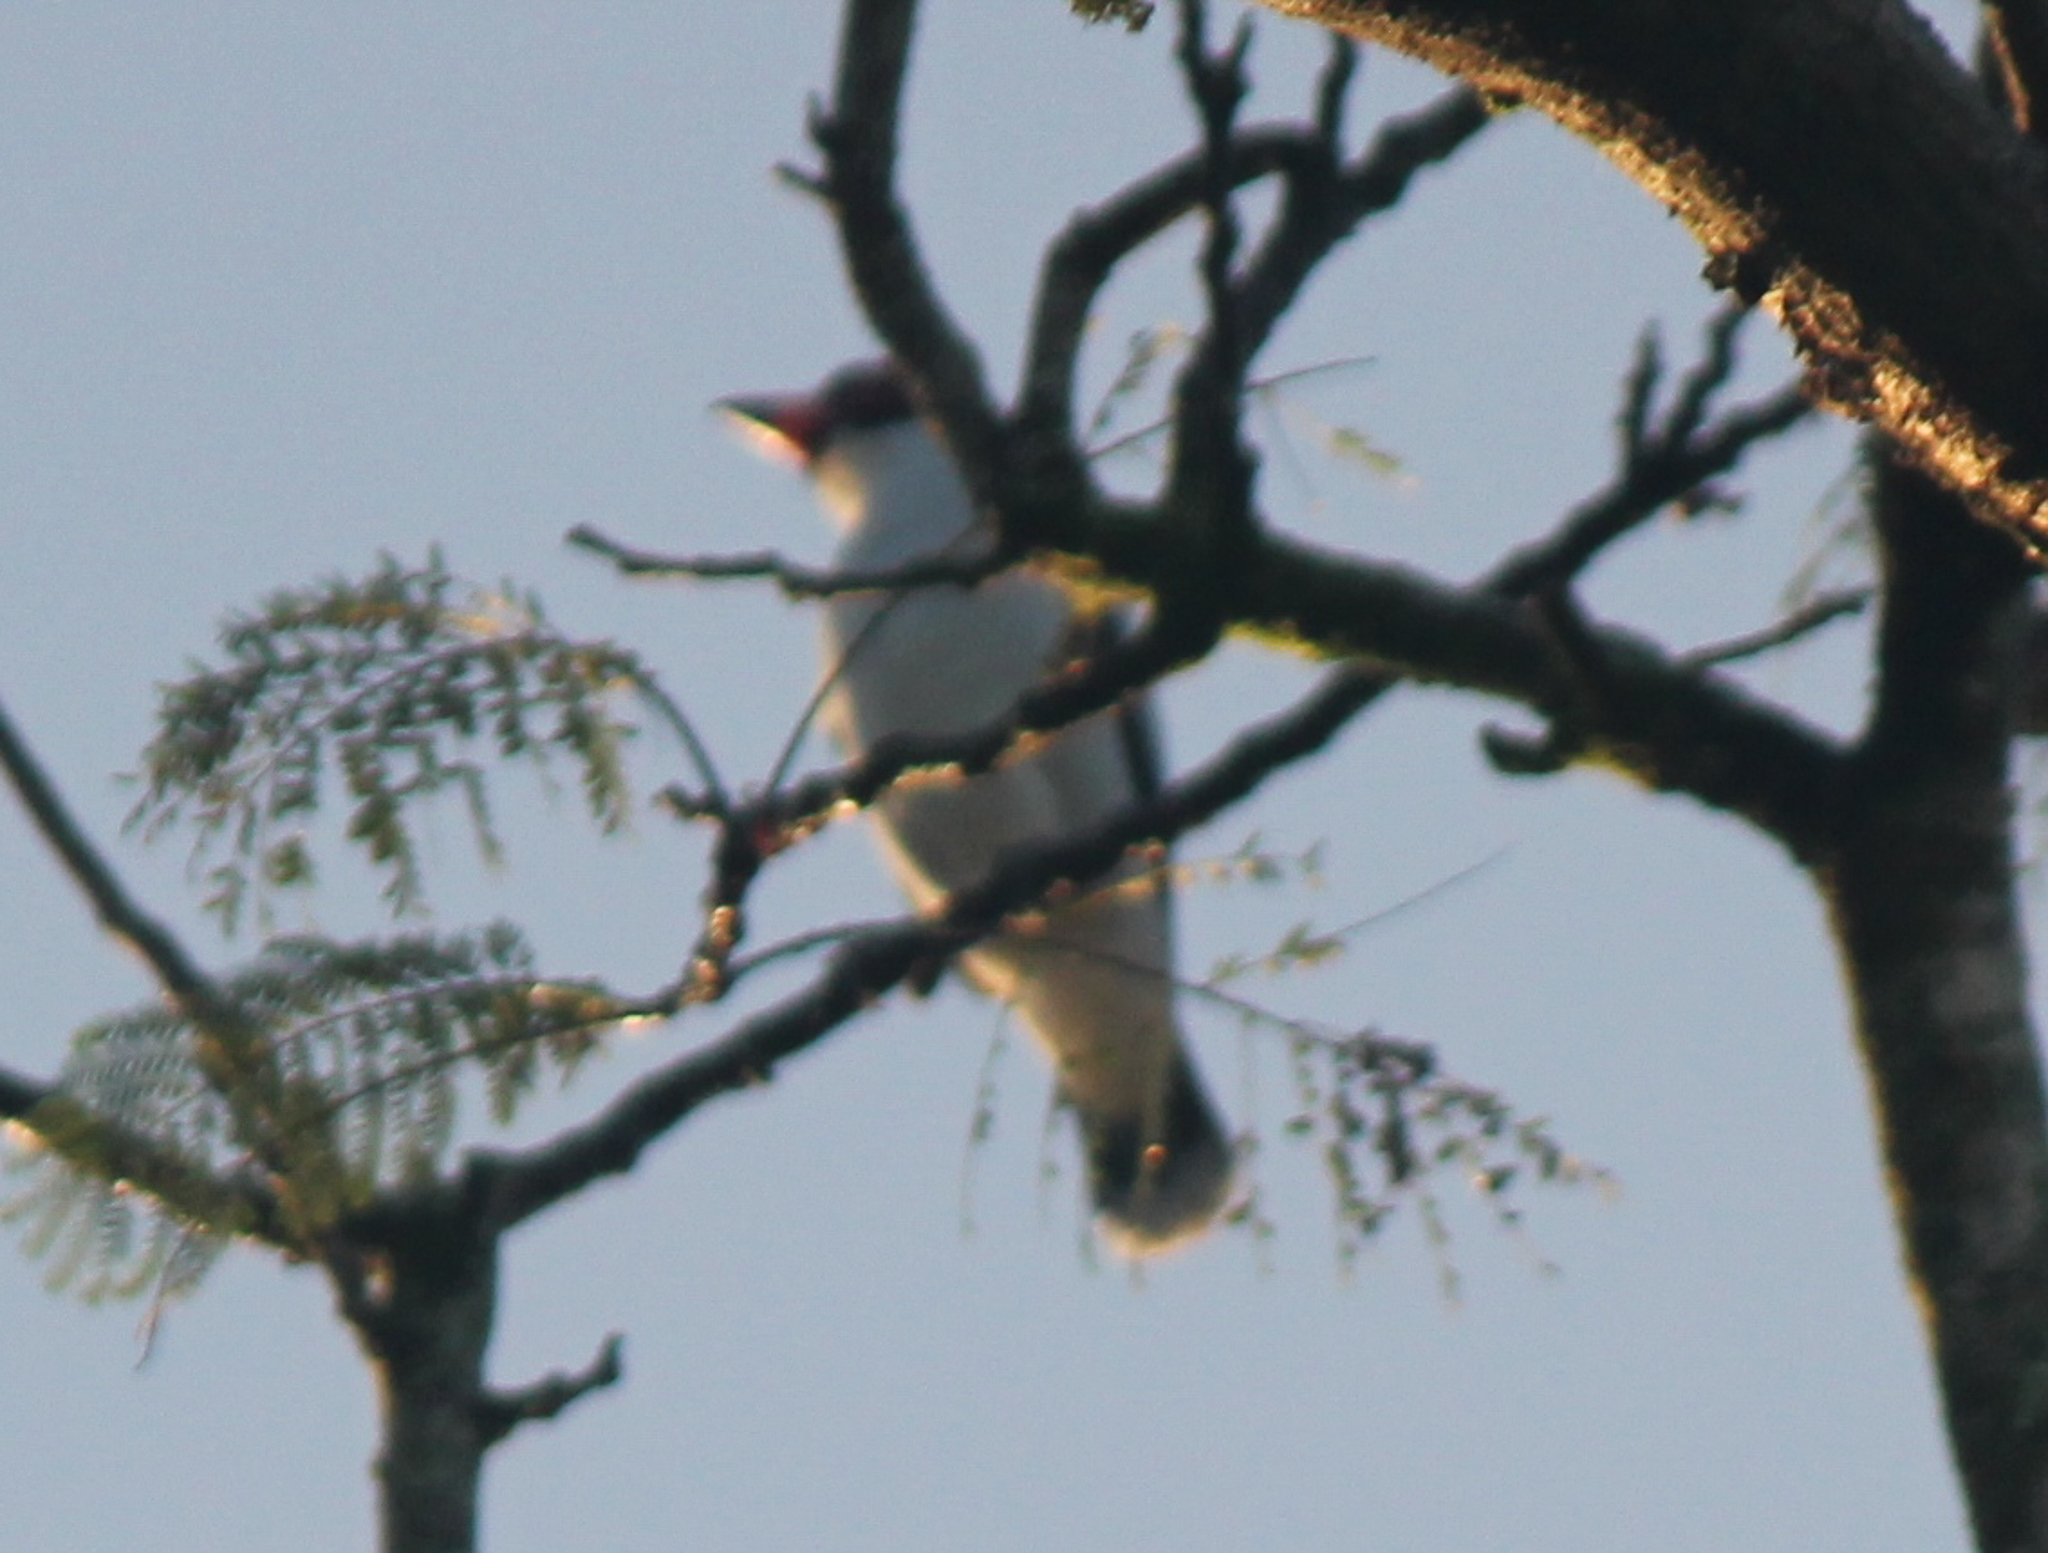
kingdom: Animalia
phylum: Chordata
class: Aves
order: Passeriformes
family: Cotingidae
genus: Tityra
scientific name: Tityra semifasciata
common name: Masked tityra
